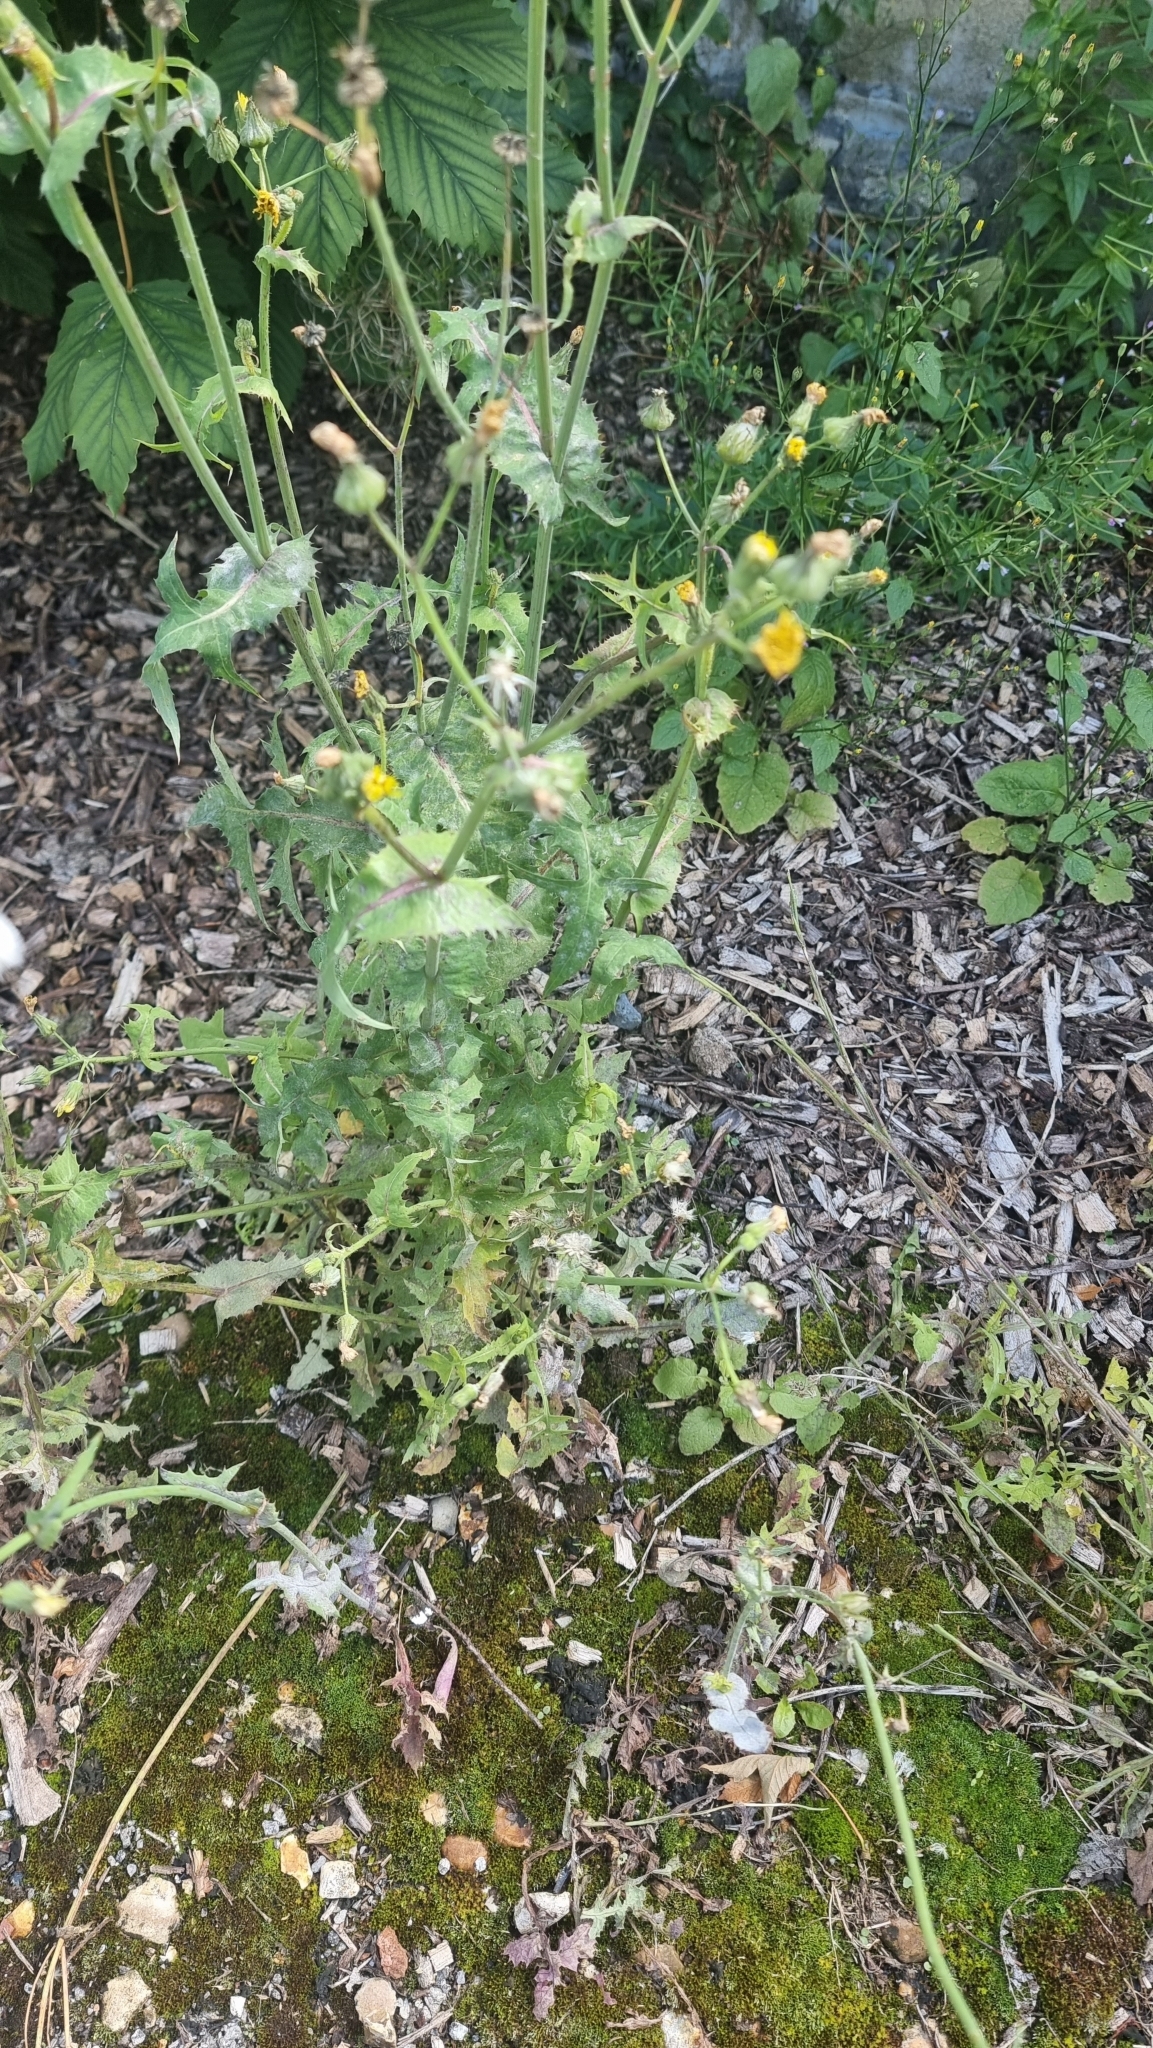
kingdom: Plantae
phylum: Tracheophyta
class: Magnoliopsida
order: Asterales
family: Asteraceae
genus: Sonchus
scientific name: Sonchus asper
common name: Prickly sow-thistle
